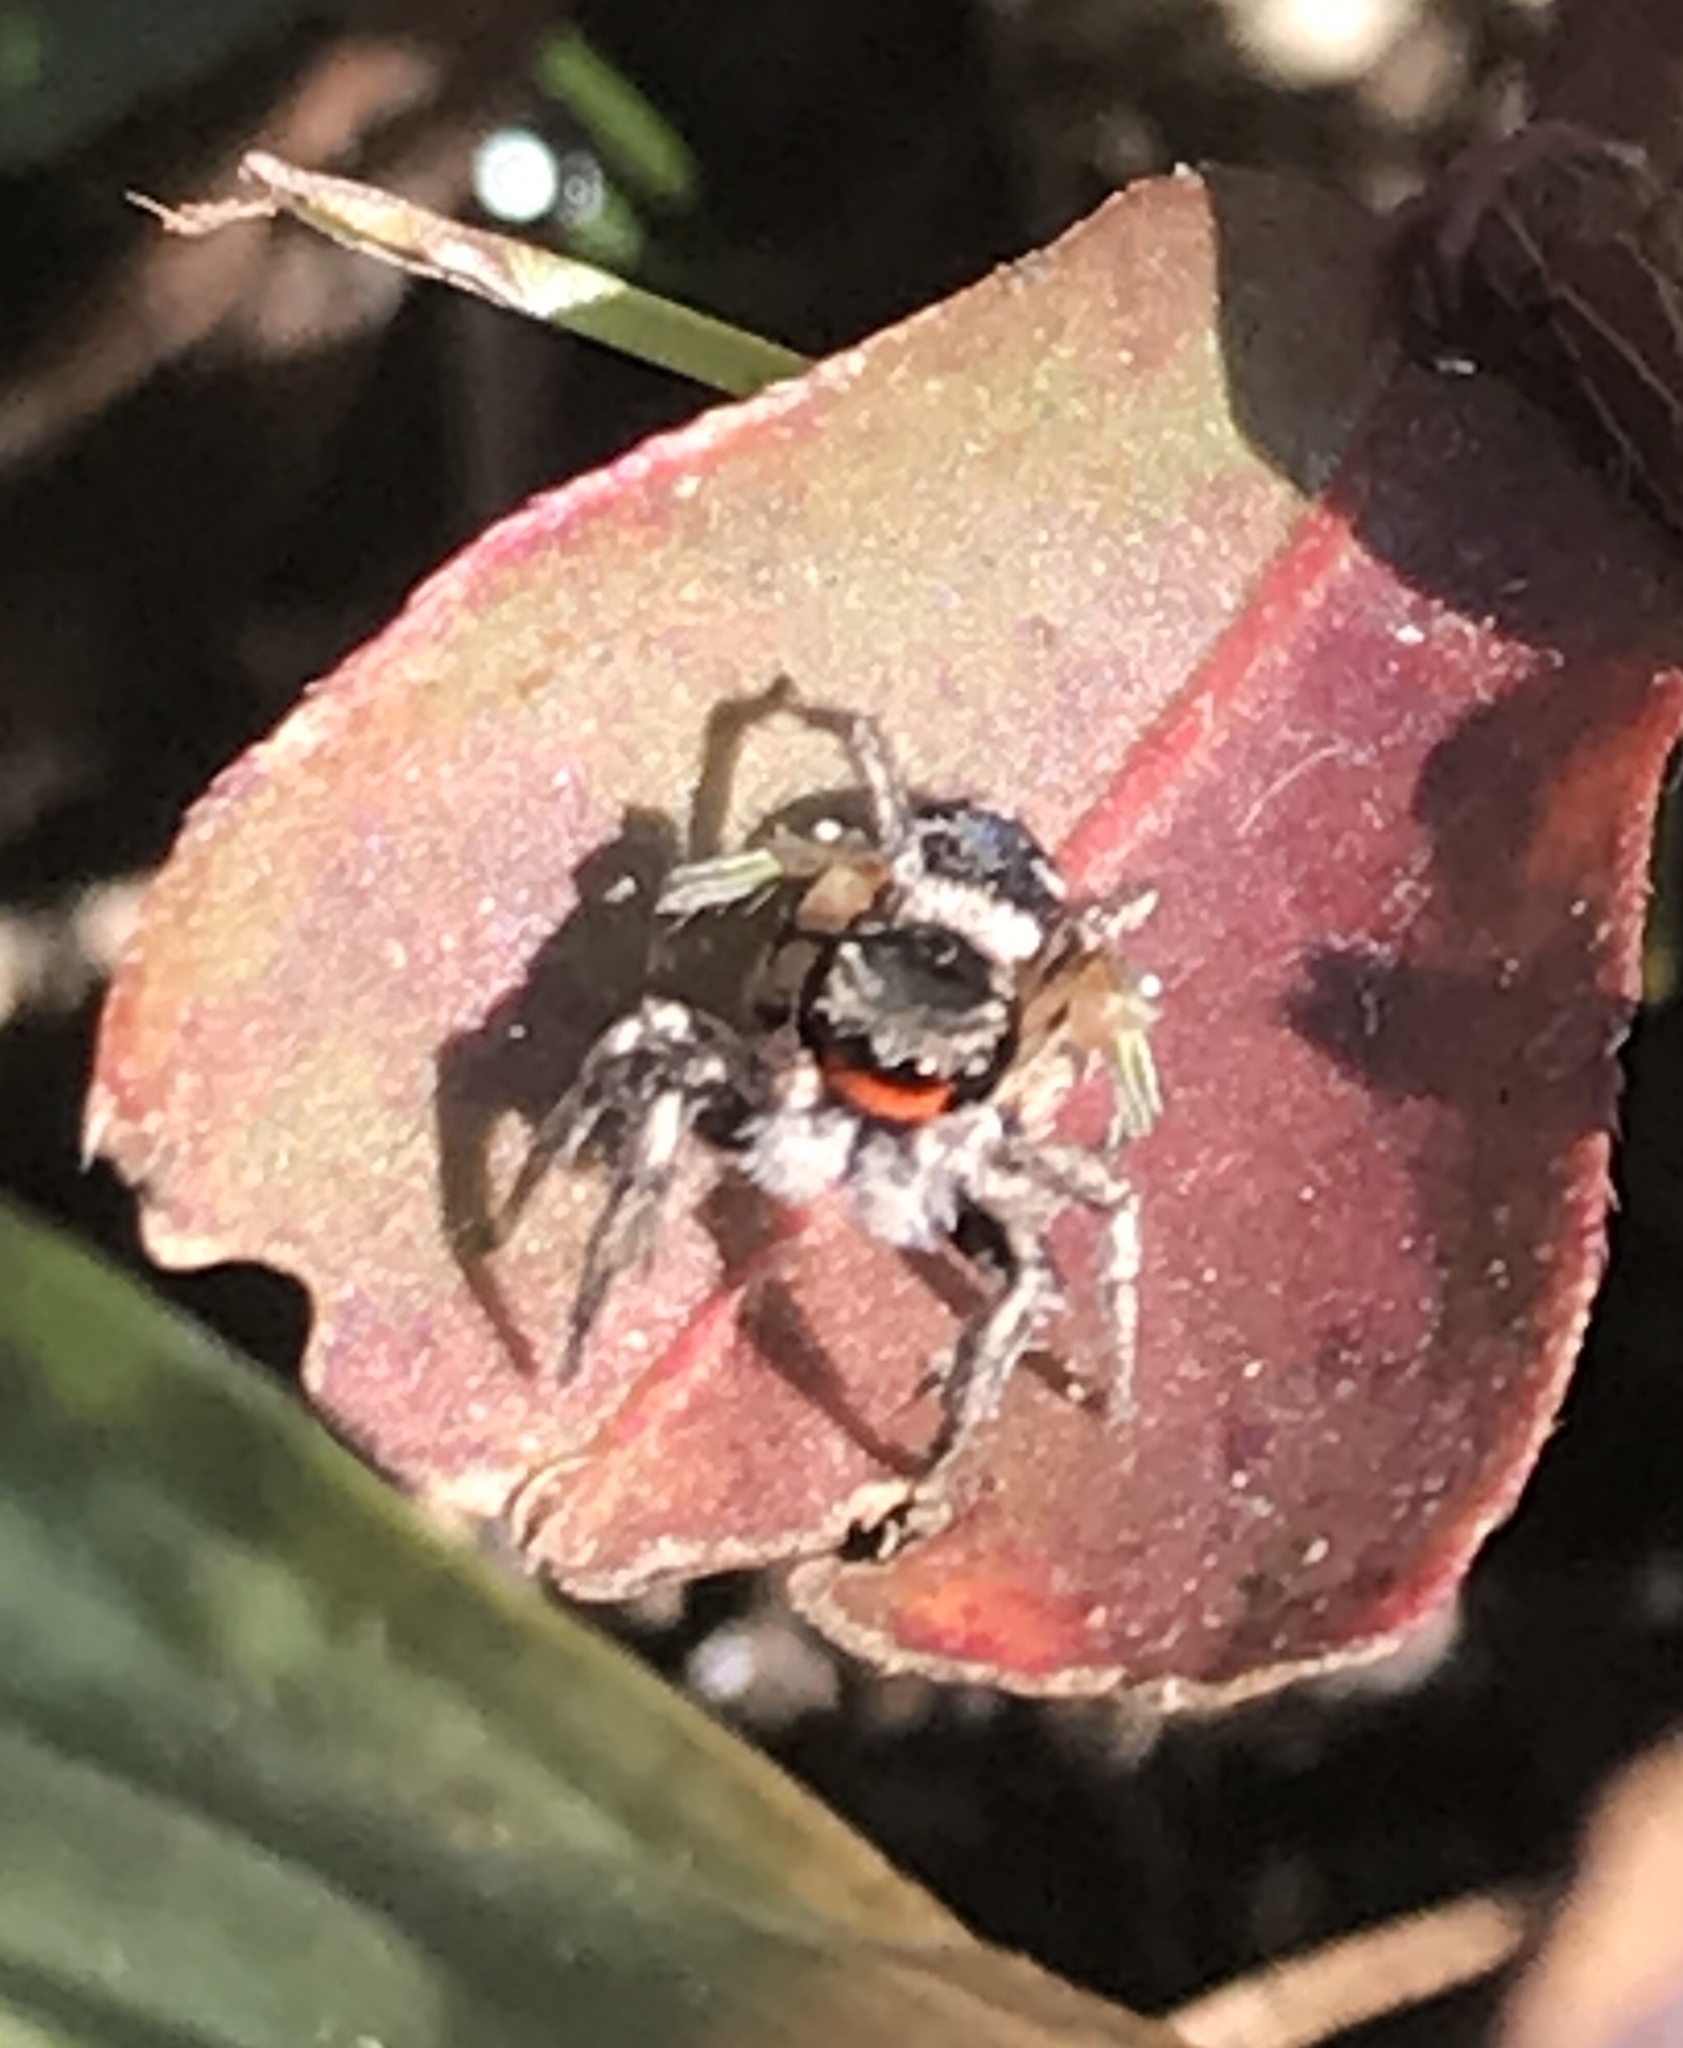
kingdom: Animalia
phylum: Arthropoda
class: Arachnida
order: Araneae
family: Salticidae
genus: Habronattus
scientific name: Habronattus coecatus
